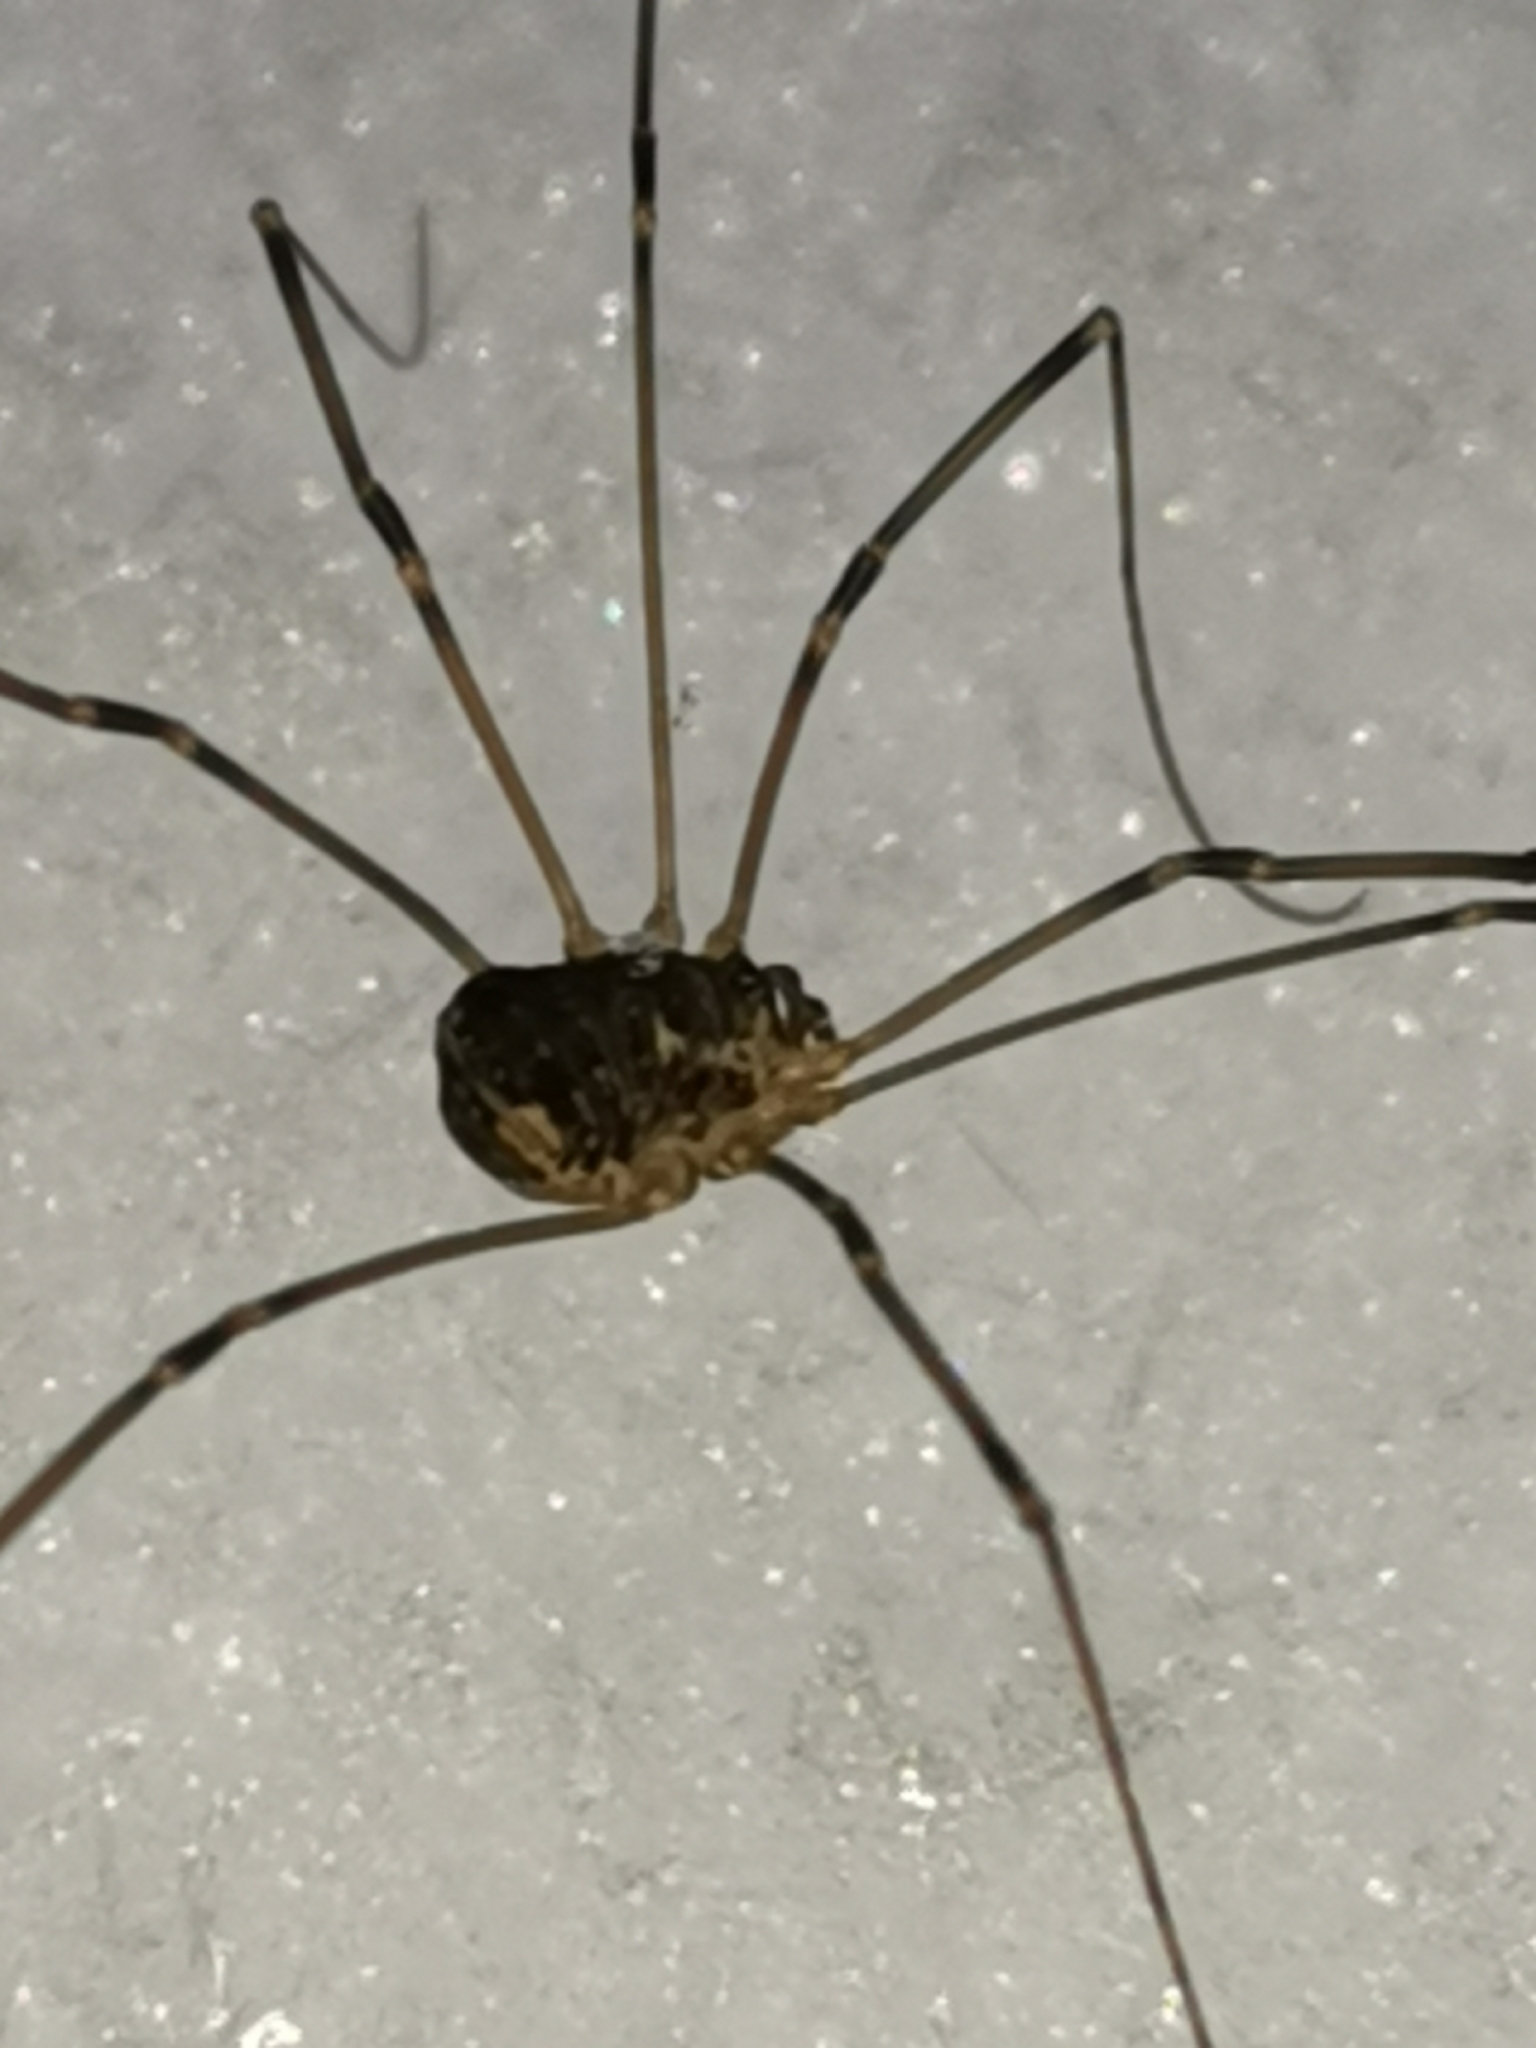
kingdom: Animalia
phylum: Arthropoda
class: Arachnida
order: Opiliones
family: Sclerosomatidae
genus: Leiobunum
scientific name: Leiobunum gracile
